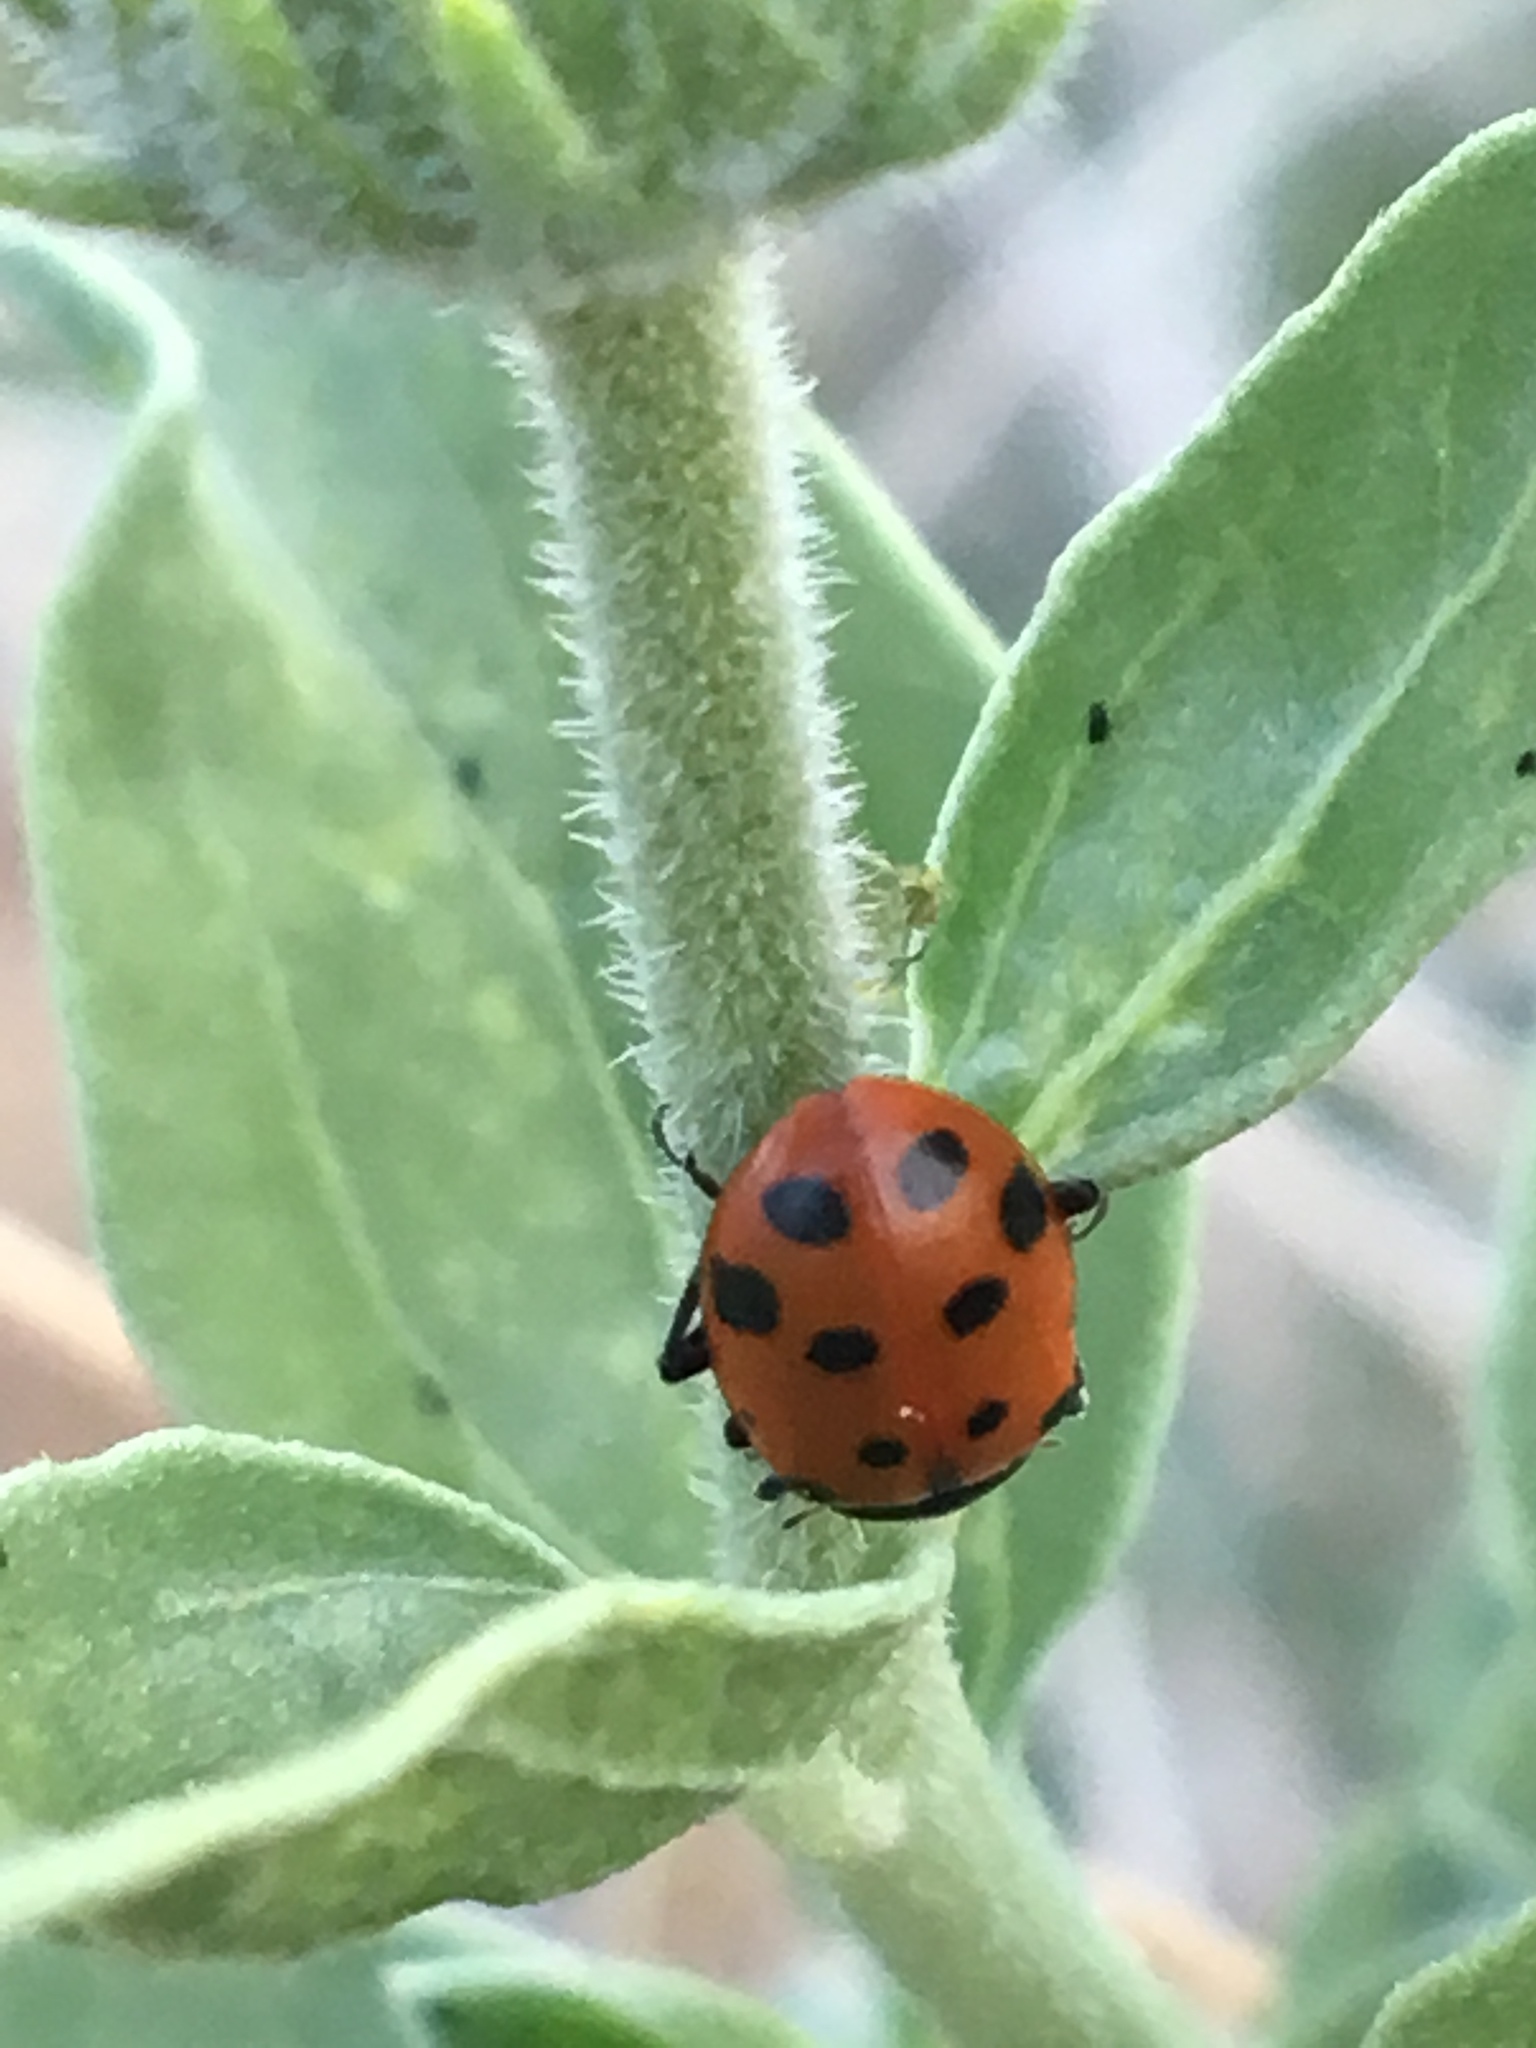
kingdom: Animalia
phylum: Arthropoda
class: Insecta
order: Coleoptera
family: Coccinellidae
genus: Hippodamia
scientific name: Hippodamia convergens
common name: Convergent lady beetle
